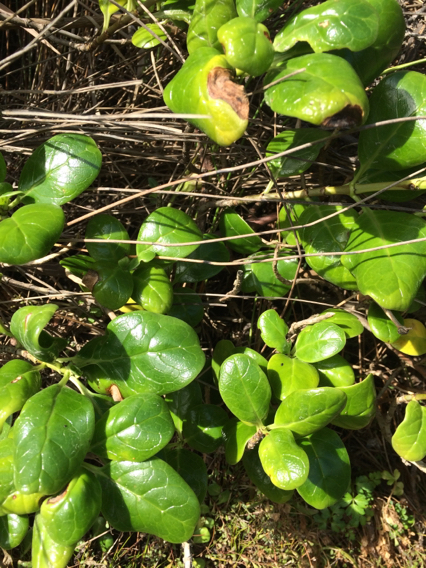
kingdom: Plantae
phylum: Tracheophyta
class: Magnoliopsida
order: Gentianales
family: Rubiaceae
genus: Coprosma
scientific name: Coprosma repens
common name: Tree bedstraw
